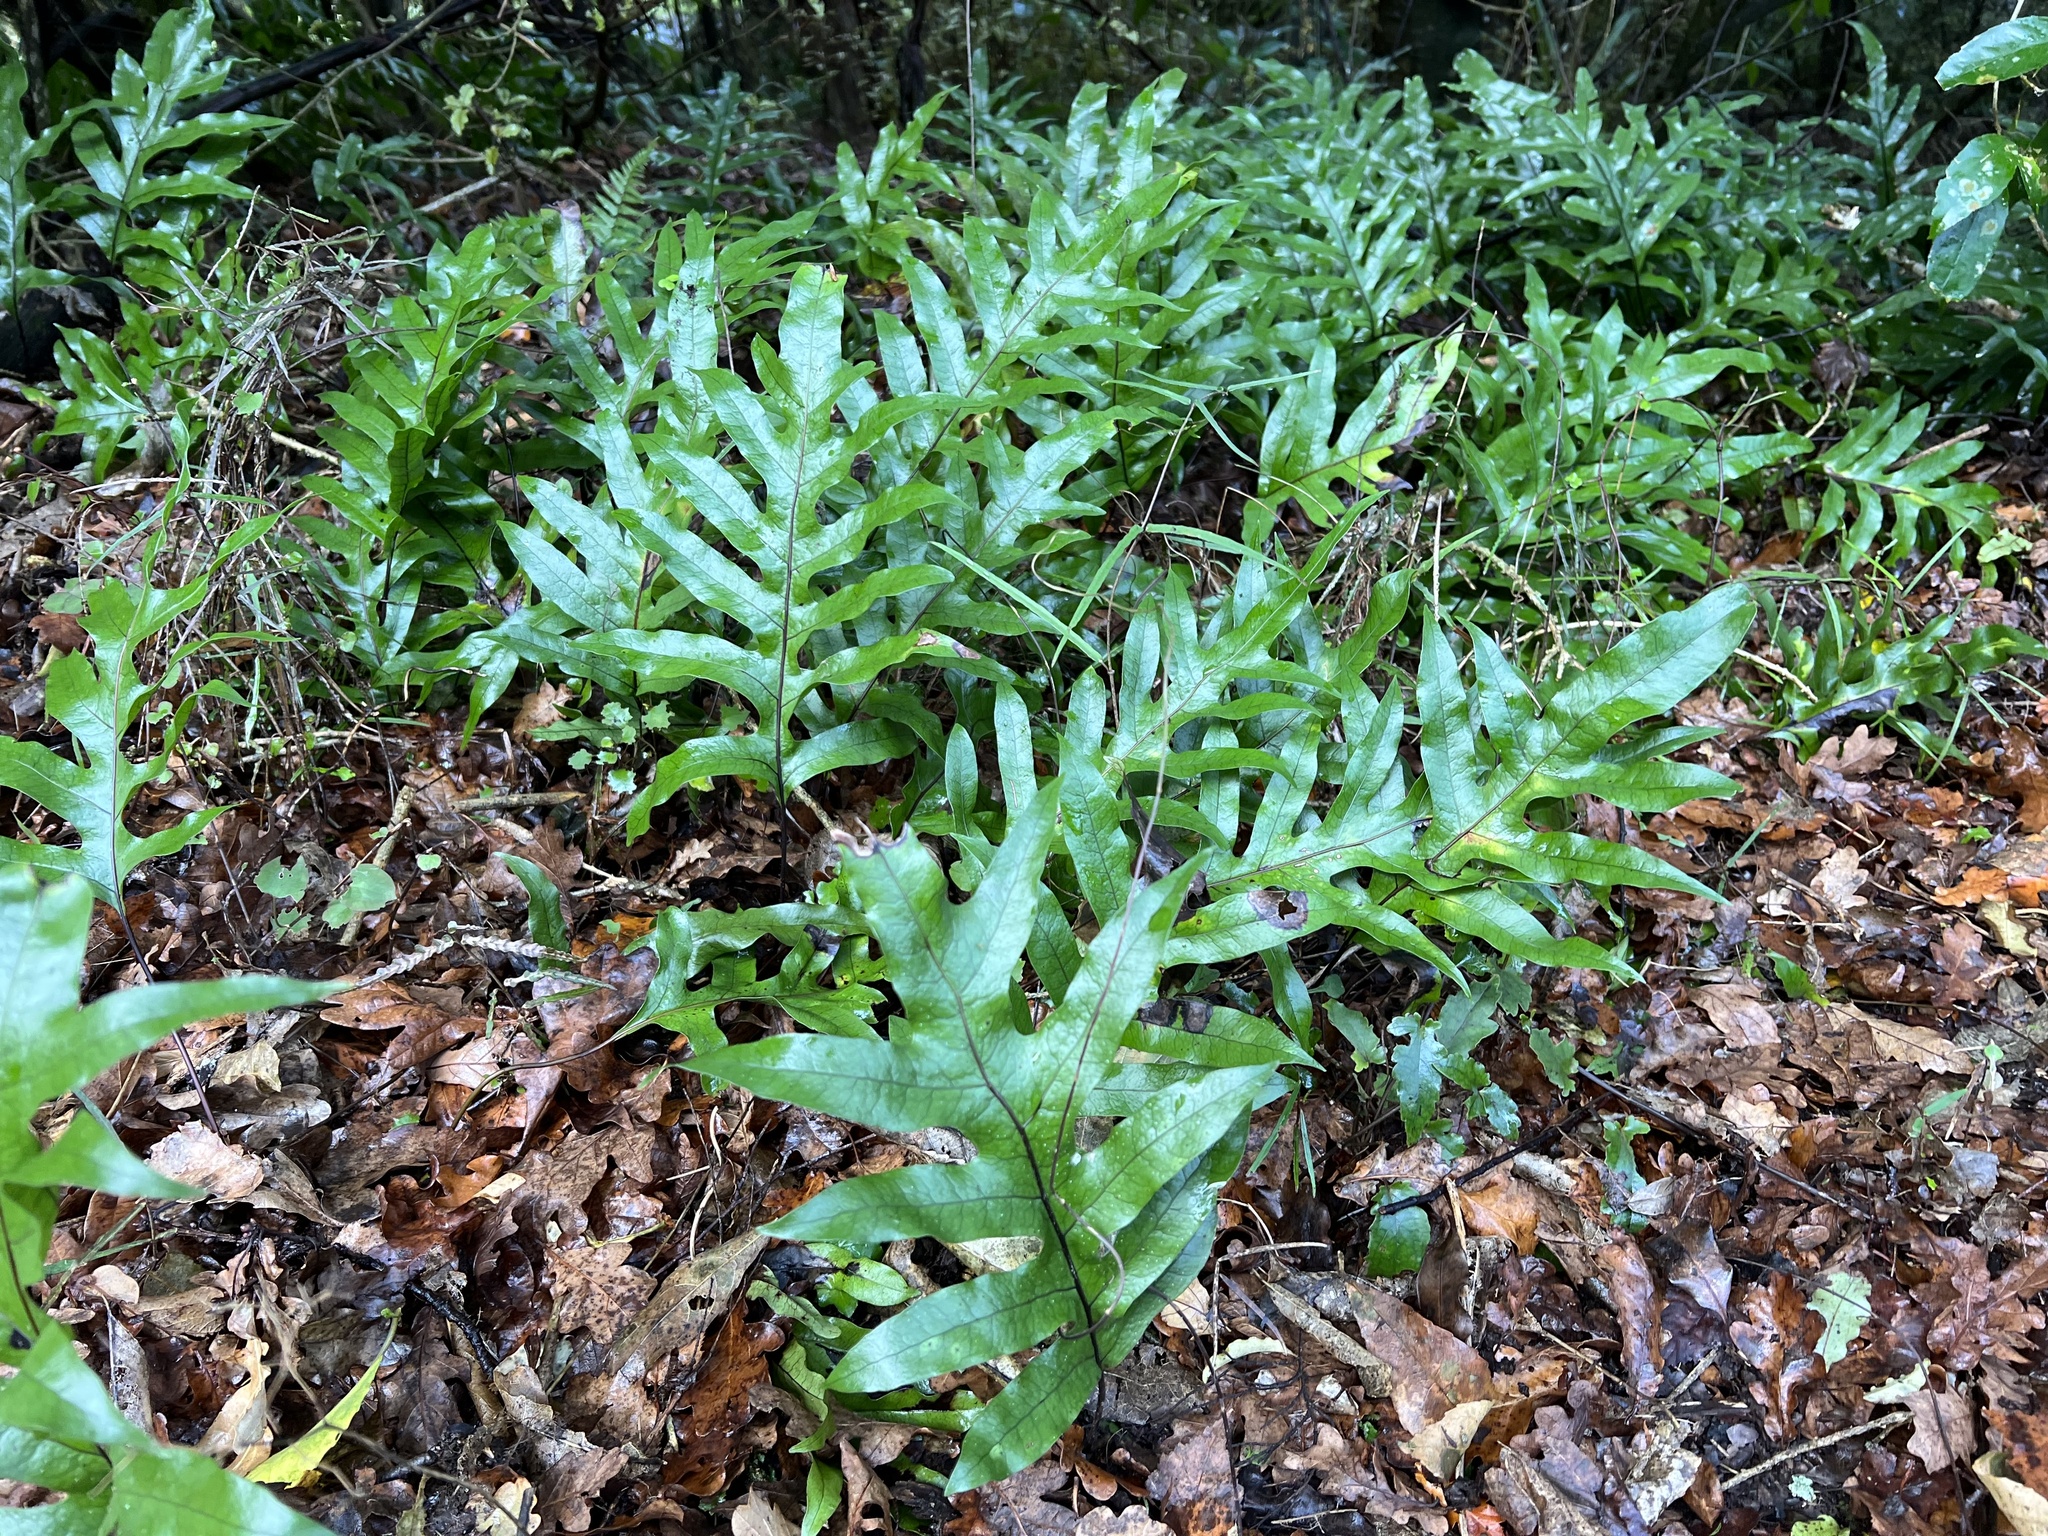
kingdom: Plantae
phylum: Tracheophyta
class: Polypodiopsida
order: Polypodiales
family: Polypodiaceae
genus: Lecanopteris
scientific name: Lecanopteris pustulata
